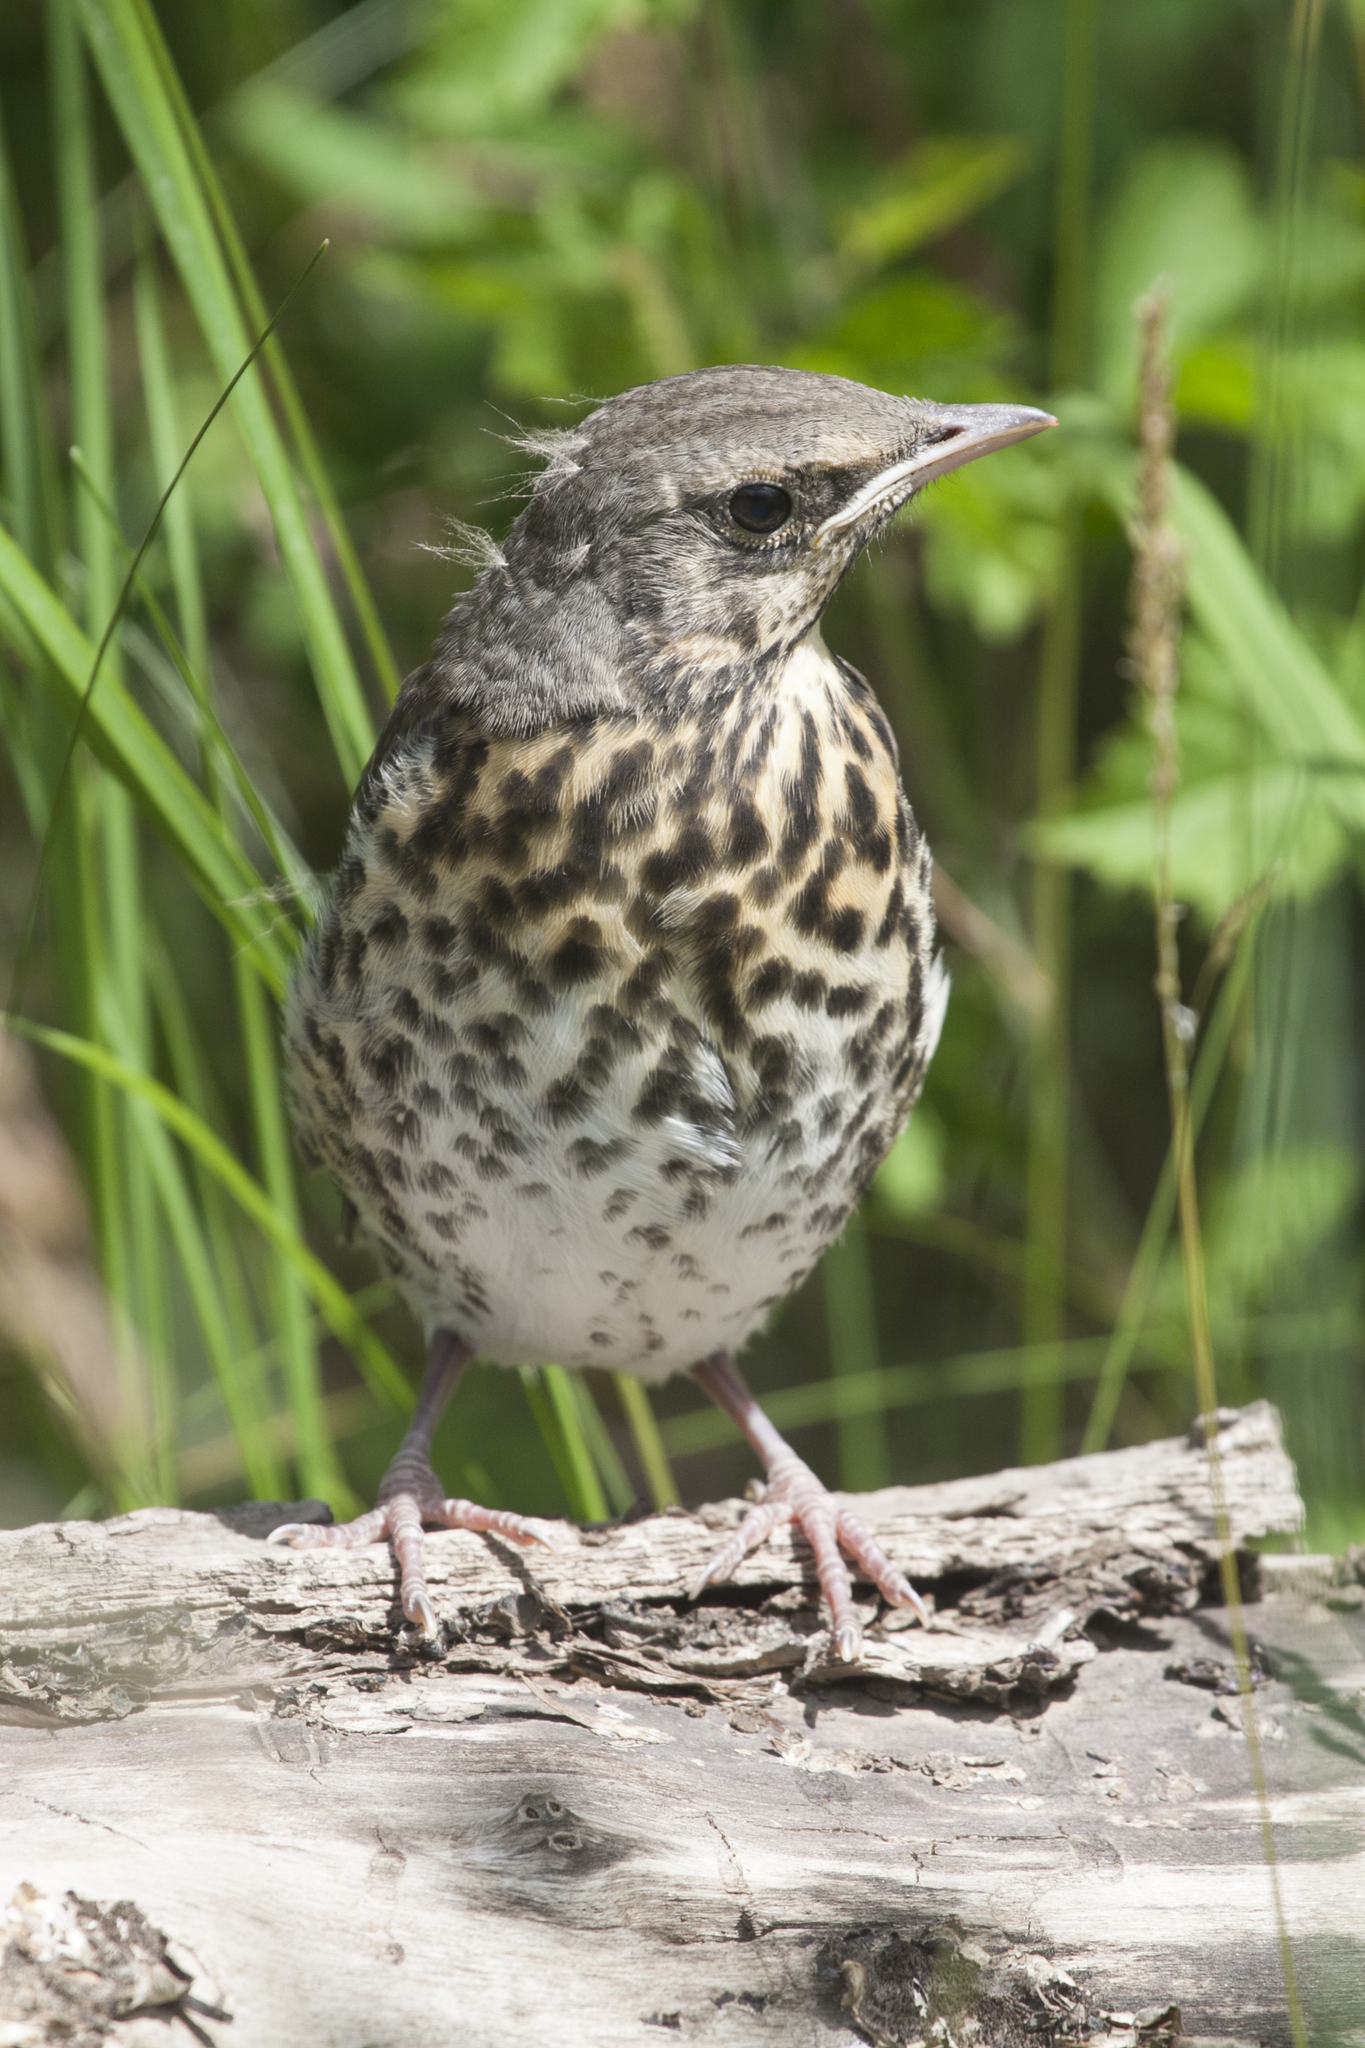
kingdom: Animalia
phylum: Chordata
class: Aves
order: Passeriformes
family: Turdidae
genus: Turdus
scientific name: Turdus pilaris
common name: Fieldfare
